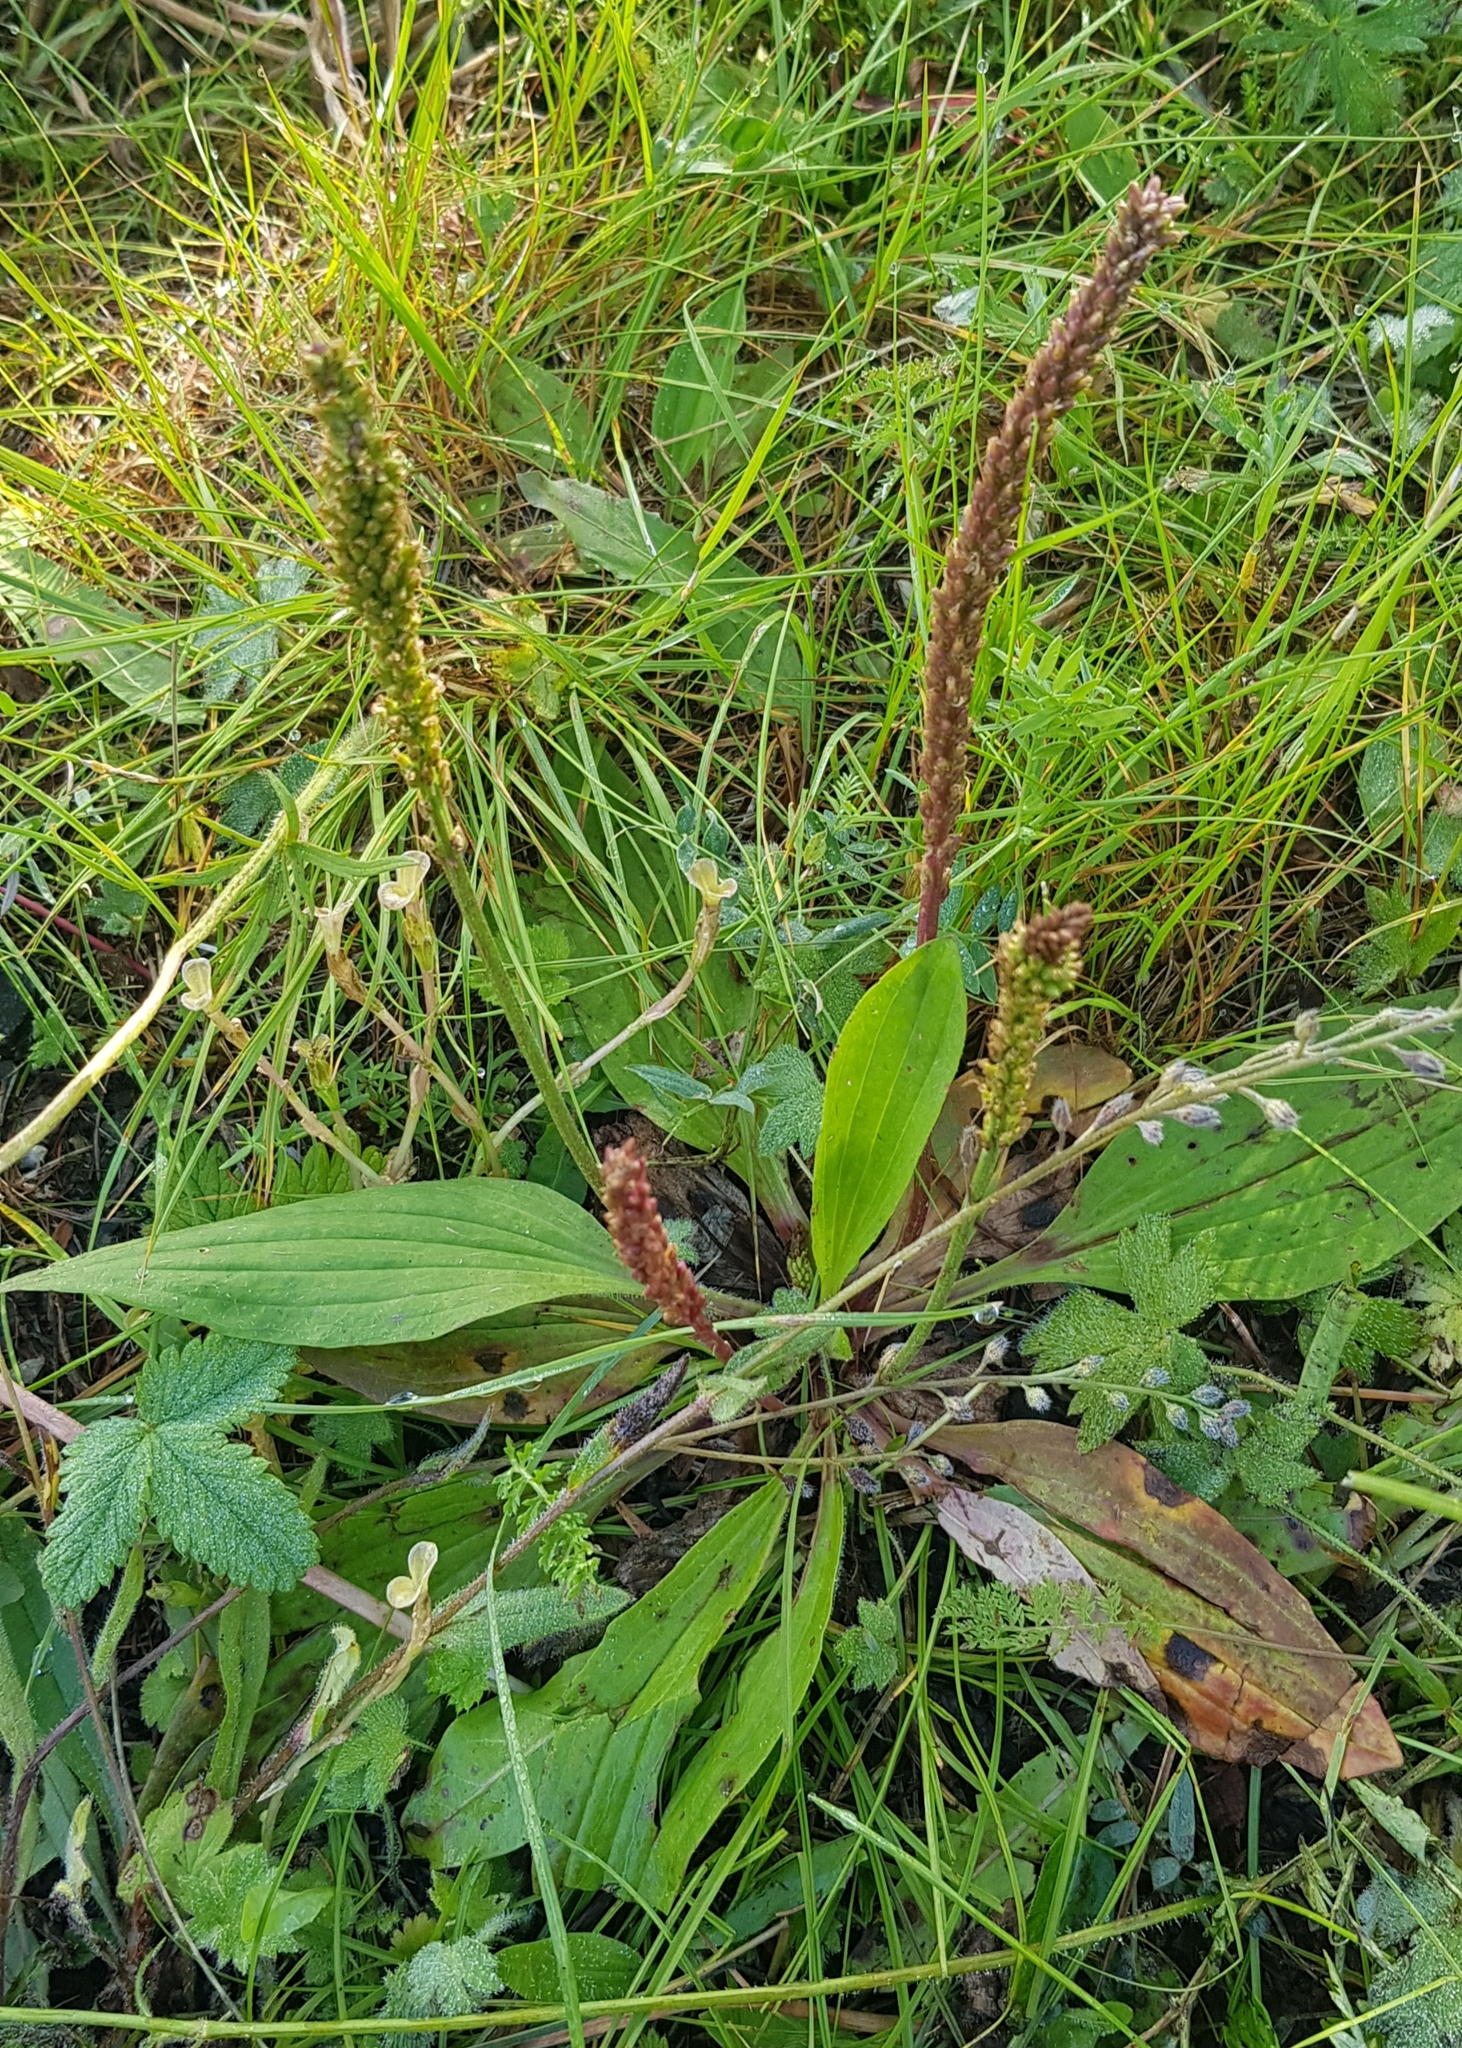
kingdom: Plantae
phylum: Tracheophyta
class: Magnoliopsida
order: Lamiales
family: Plantaginaceae
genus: Plantago
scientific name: Plantago urvillei
